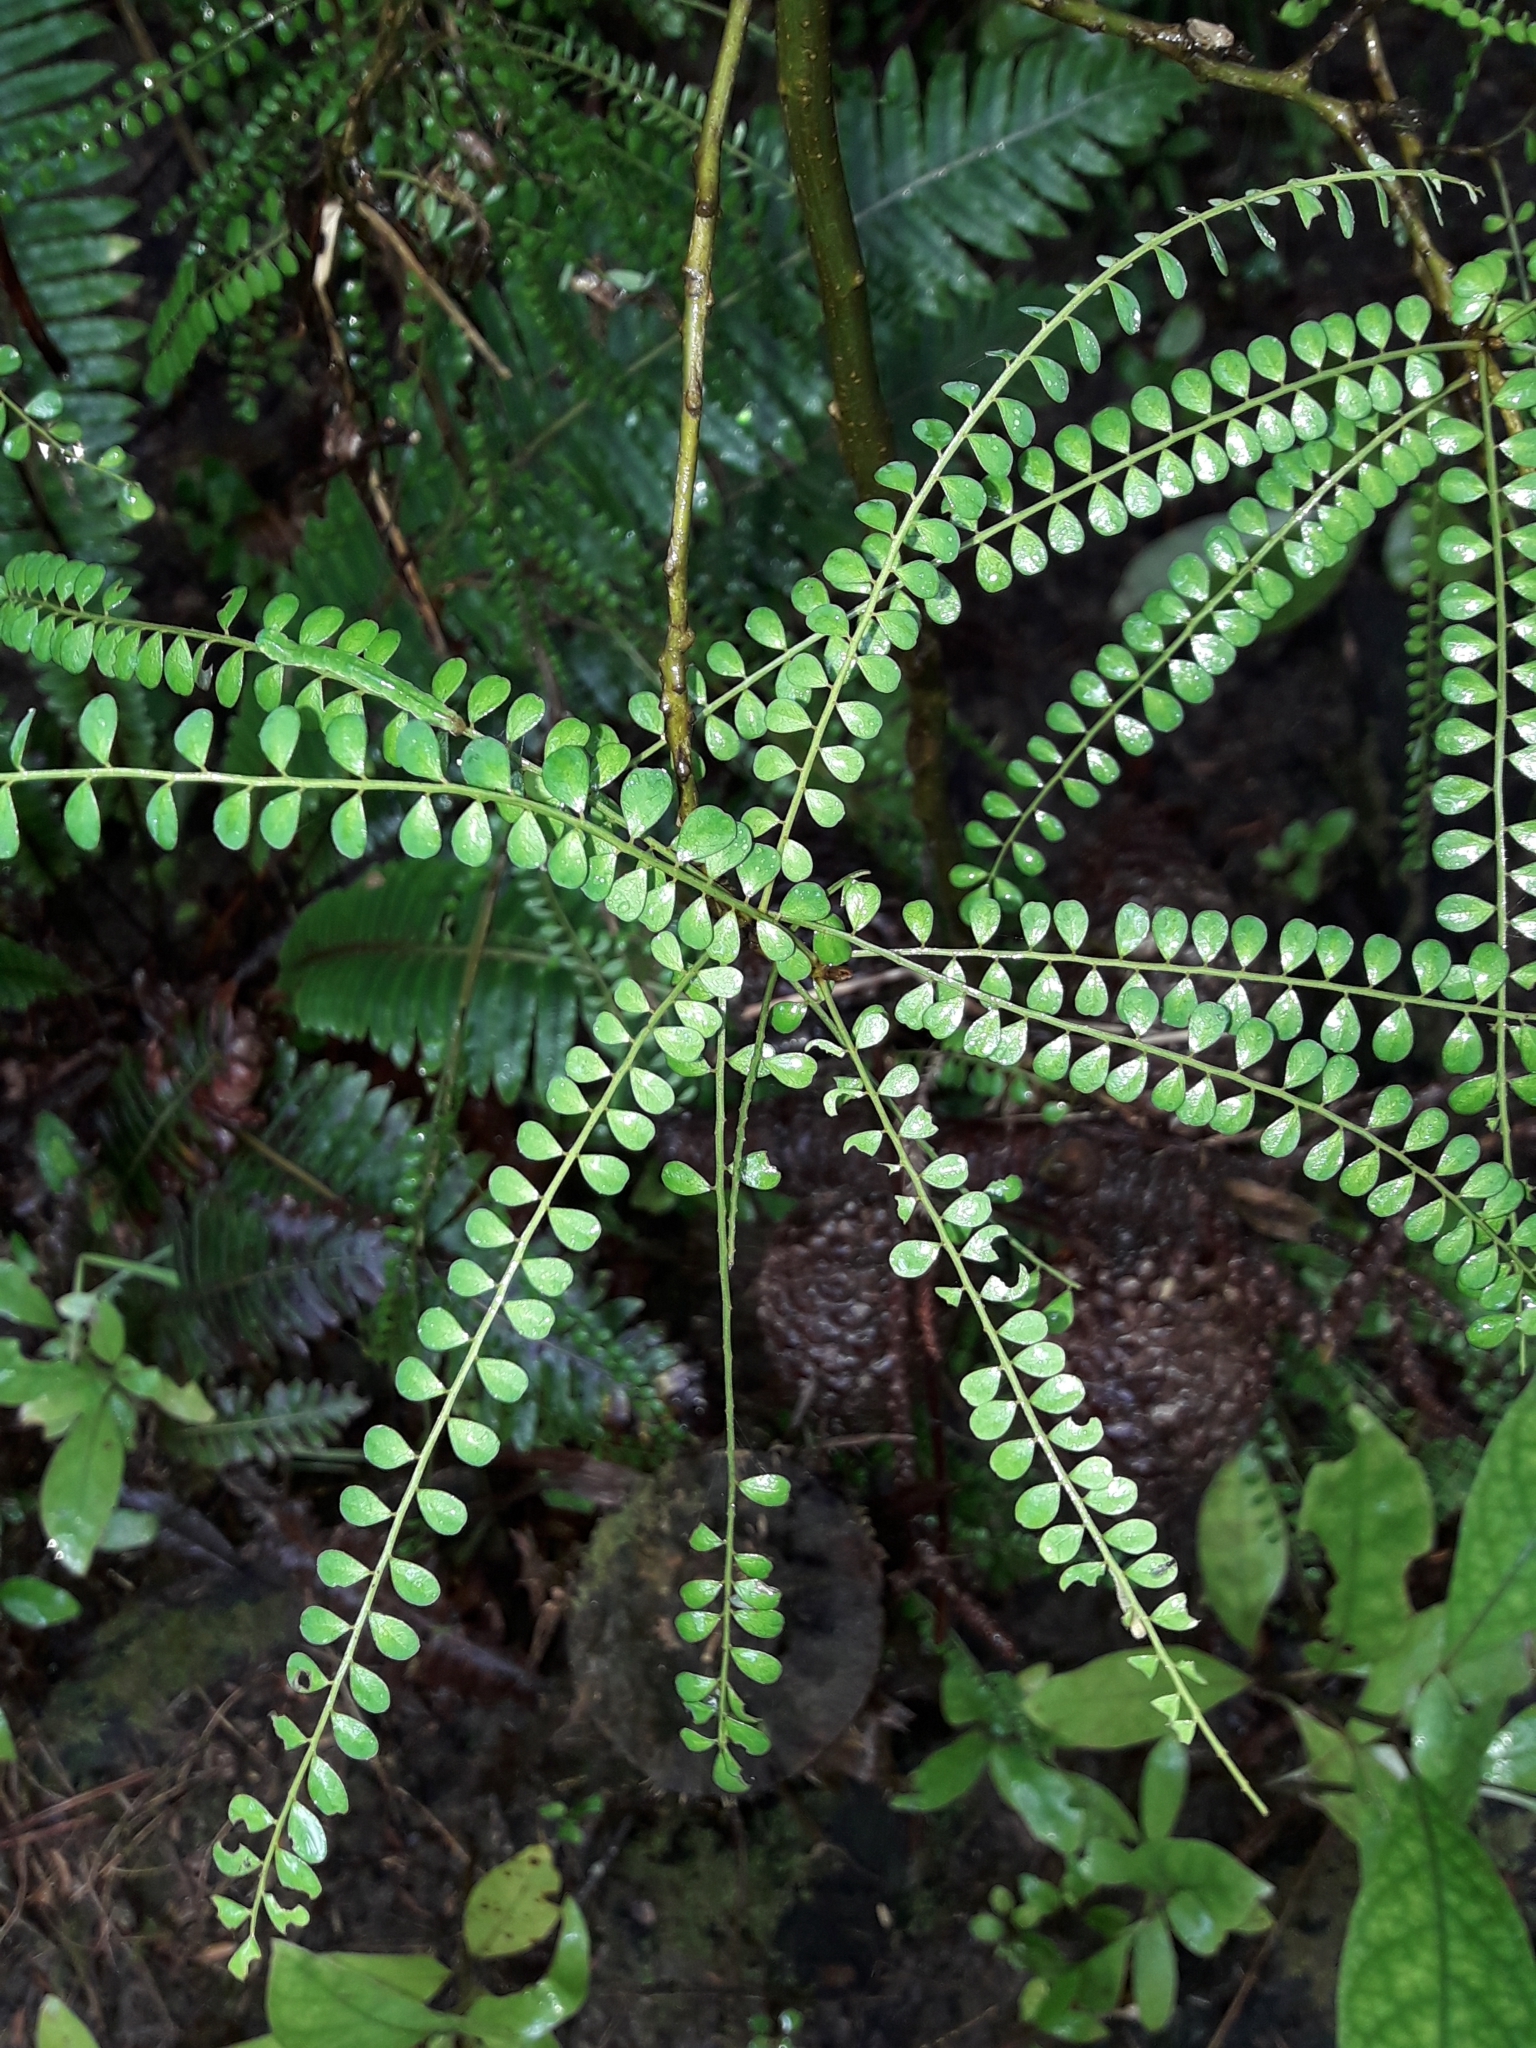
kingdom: Plantae
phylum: Tracheophyta
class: Magnoliopsida
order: Fabales
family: Fabaceae
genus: Sophora
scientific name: Sophora longicarinata
